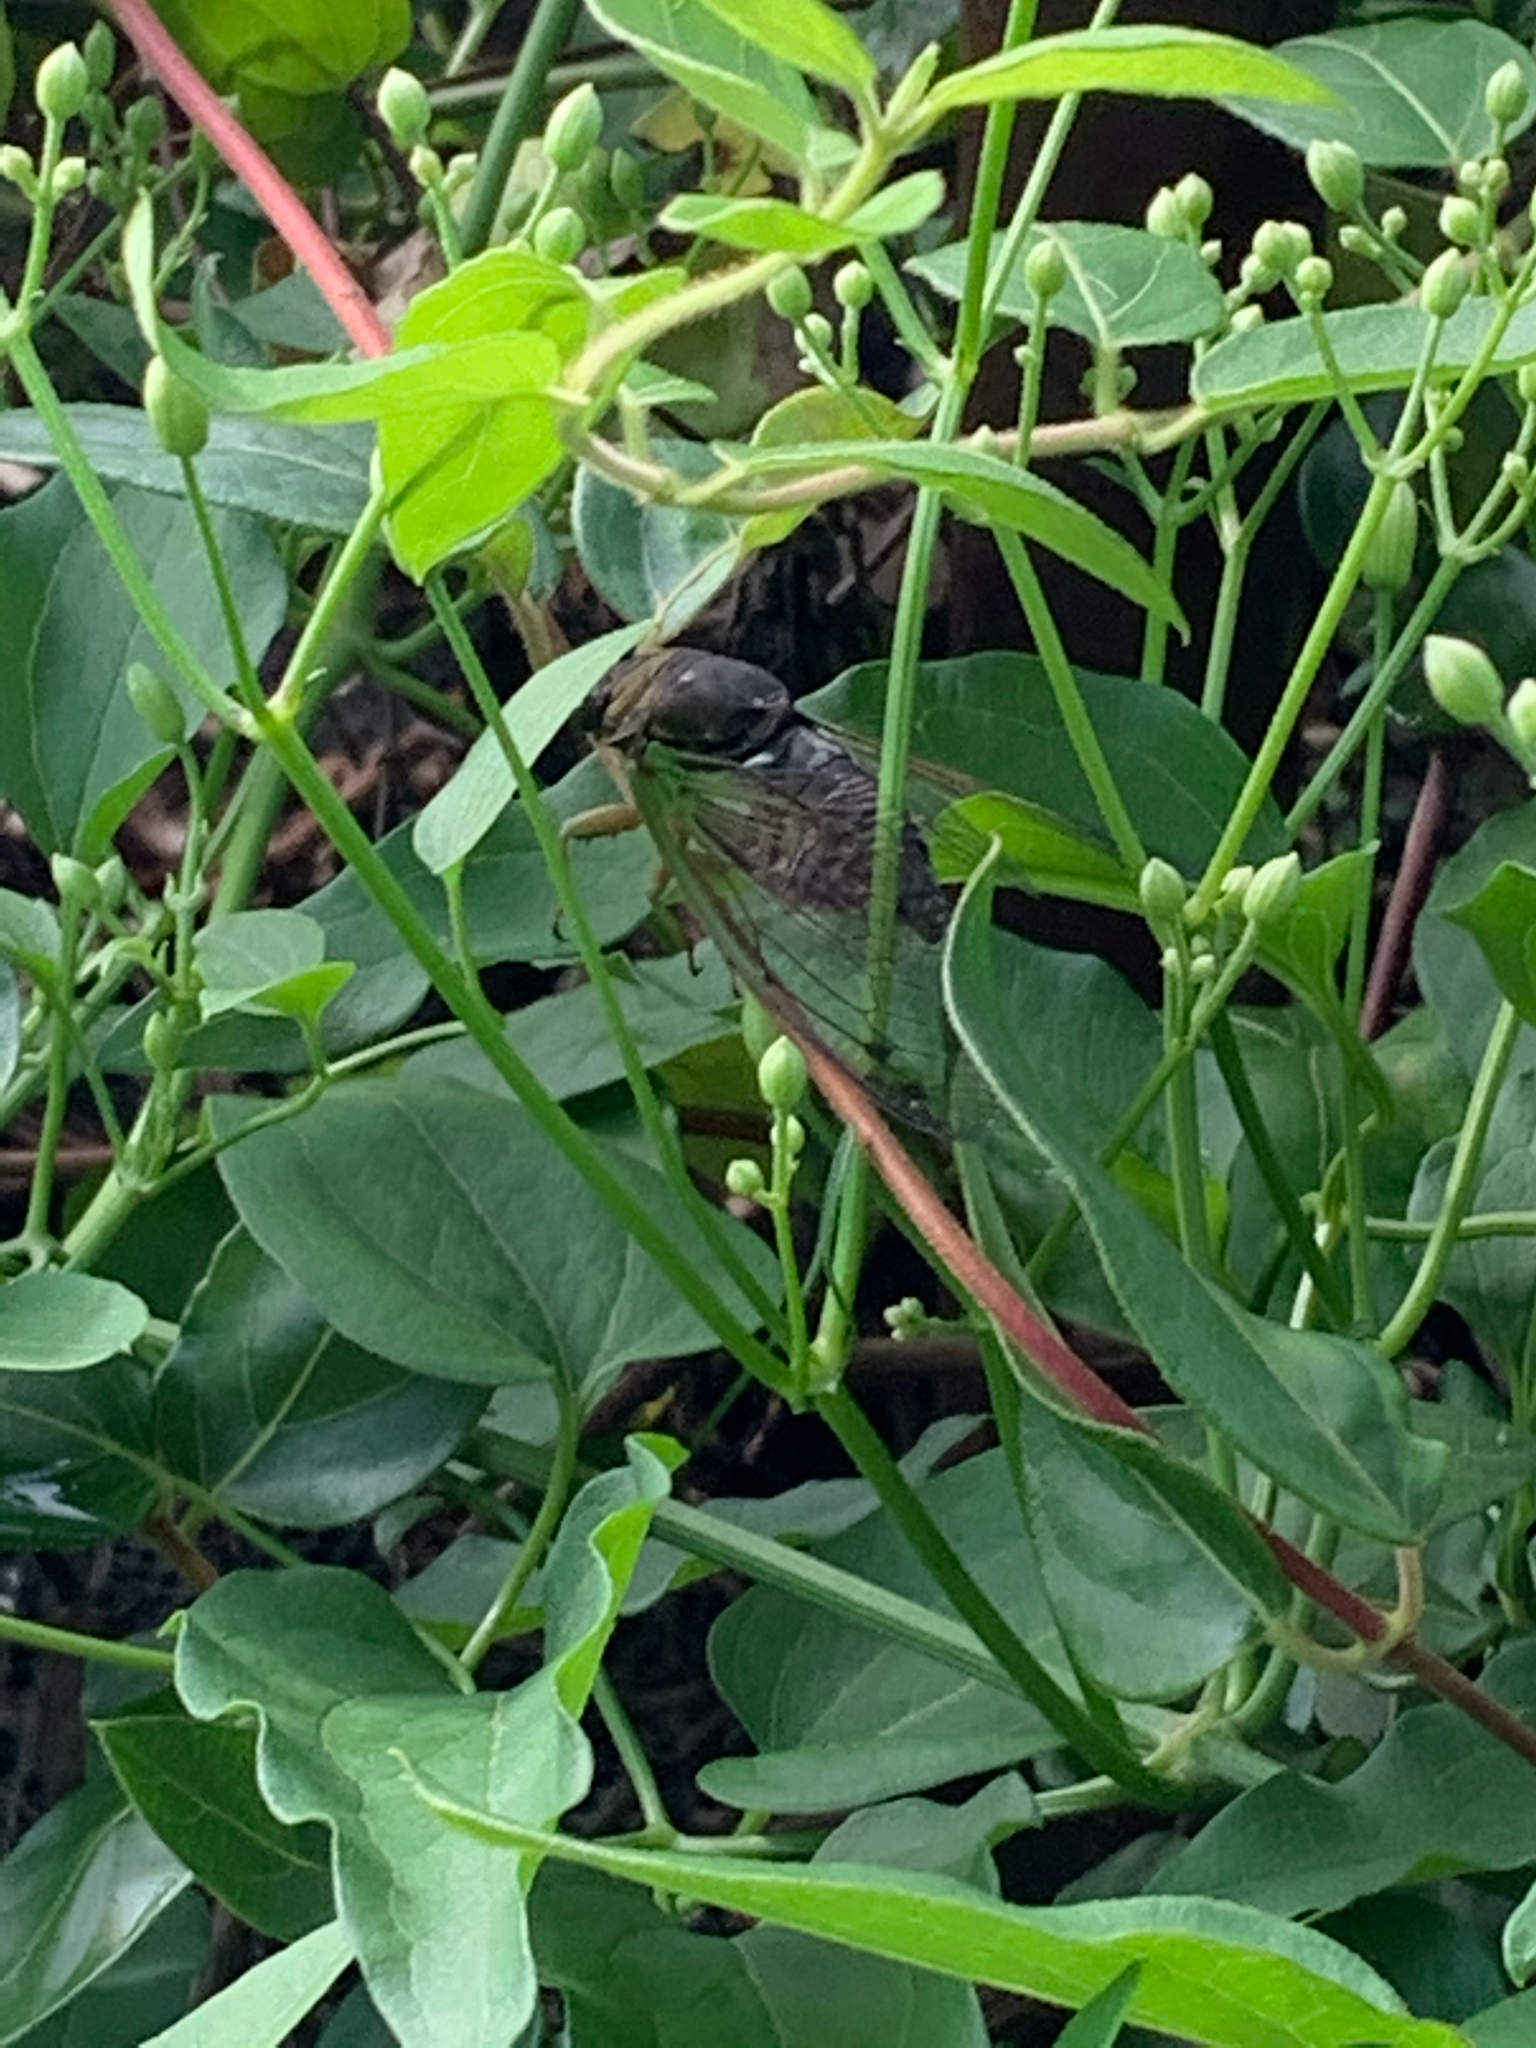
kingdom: Animalia
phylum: Arthropoda
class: Insecta
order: Hemiptera
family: Cicadidae
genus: Neotibicen
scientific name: Neotibicen tibicen
